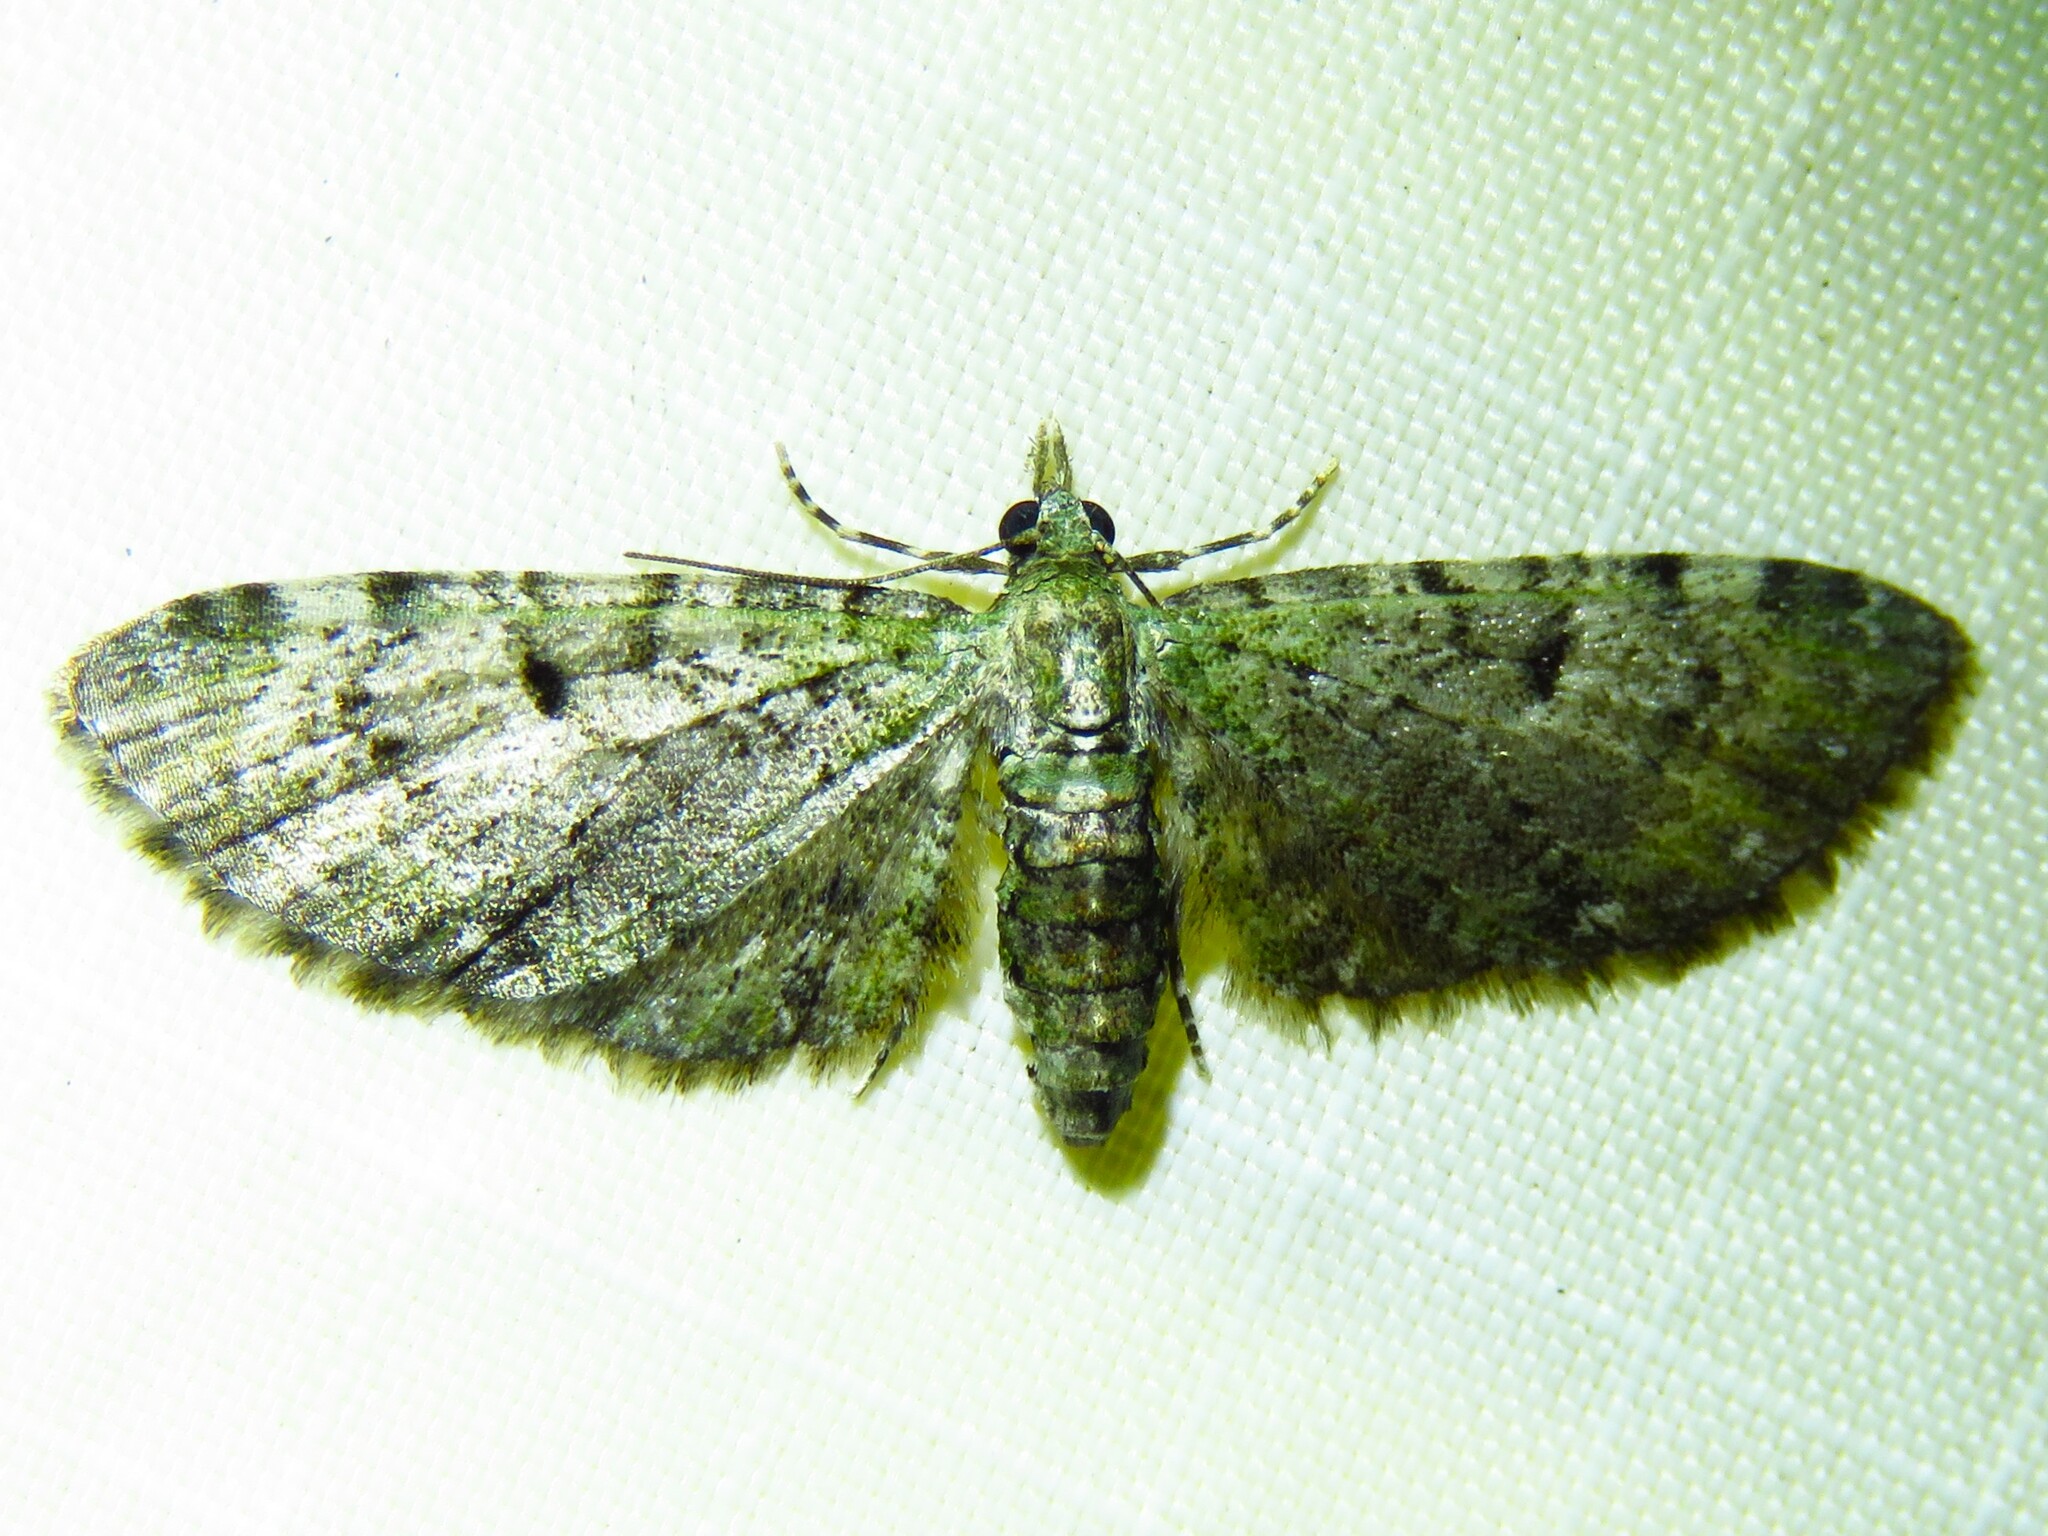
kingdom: Animalia
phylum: Arthropoda
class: Insecta
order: Lepidoptera
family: Geometridae
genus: Eupithecia
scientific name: Eupithecia miserulata
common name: Common eupithecia
